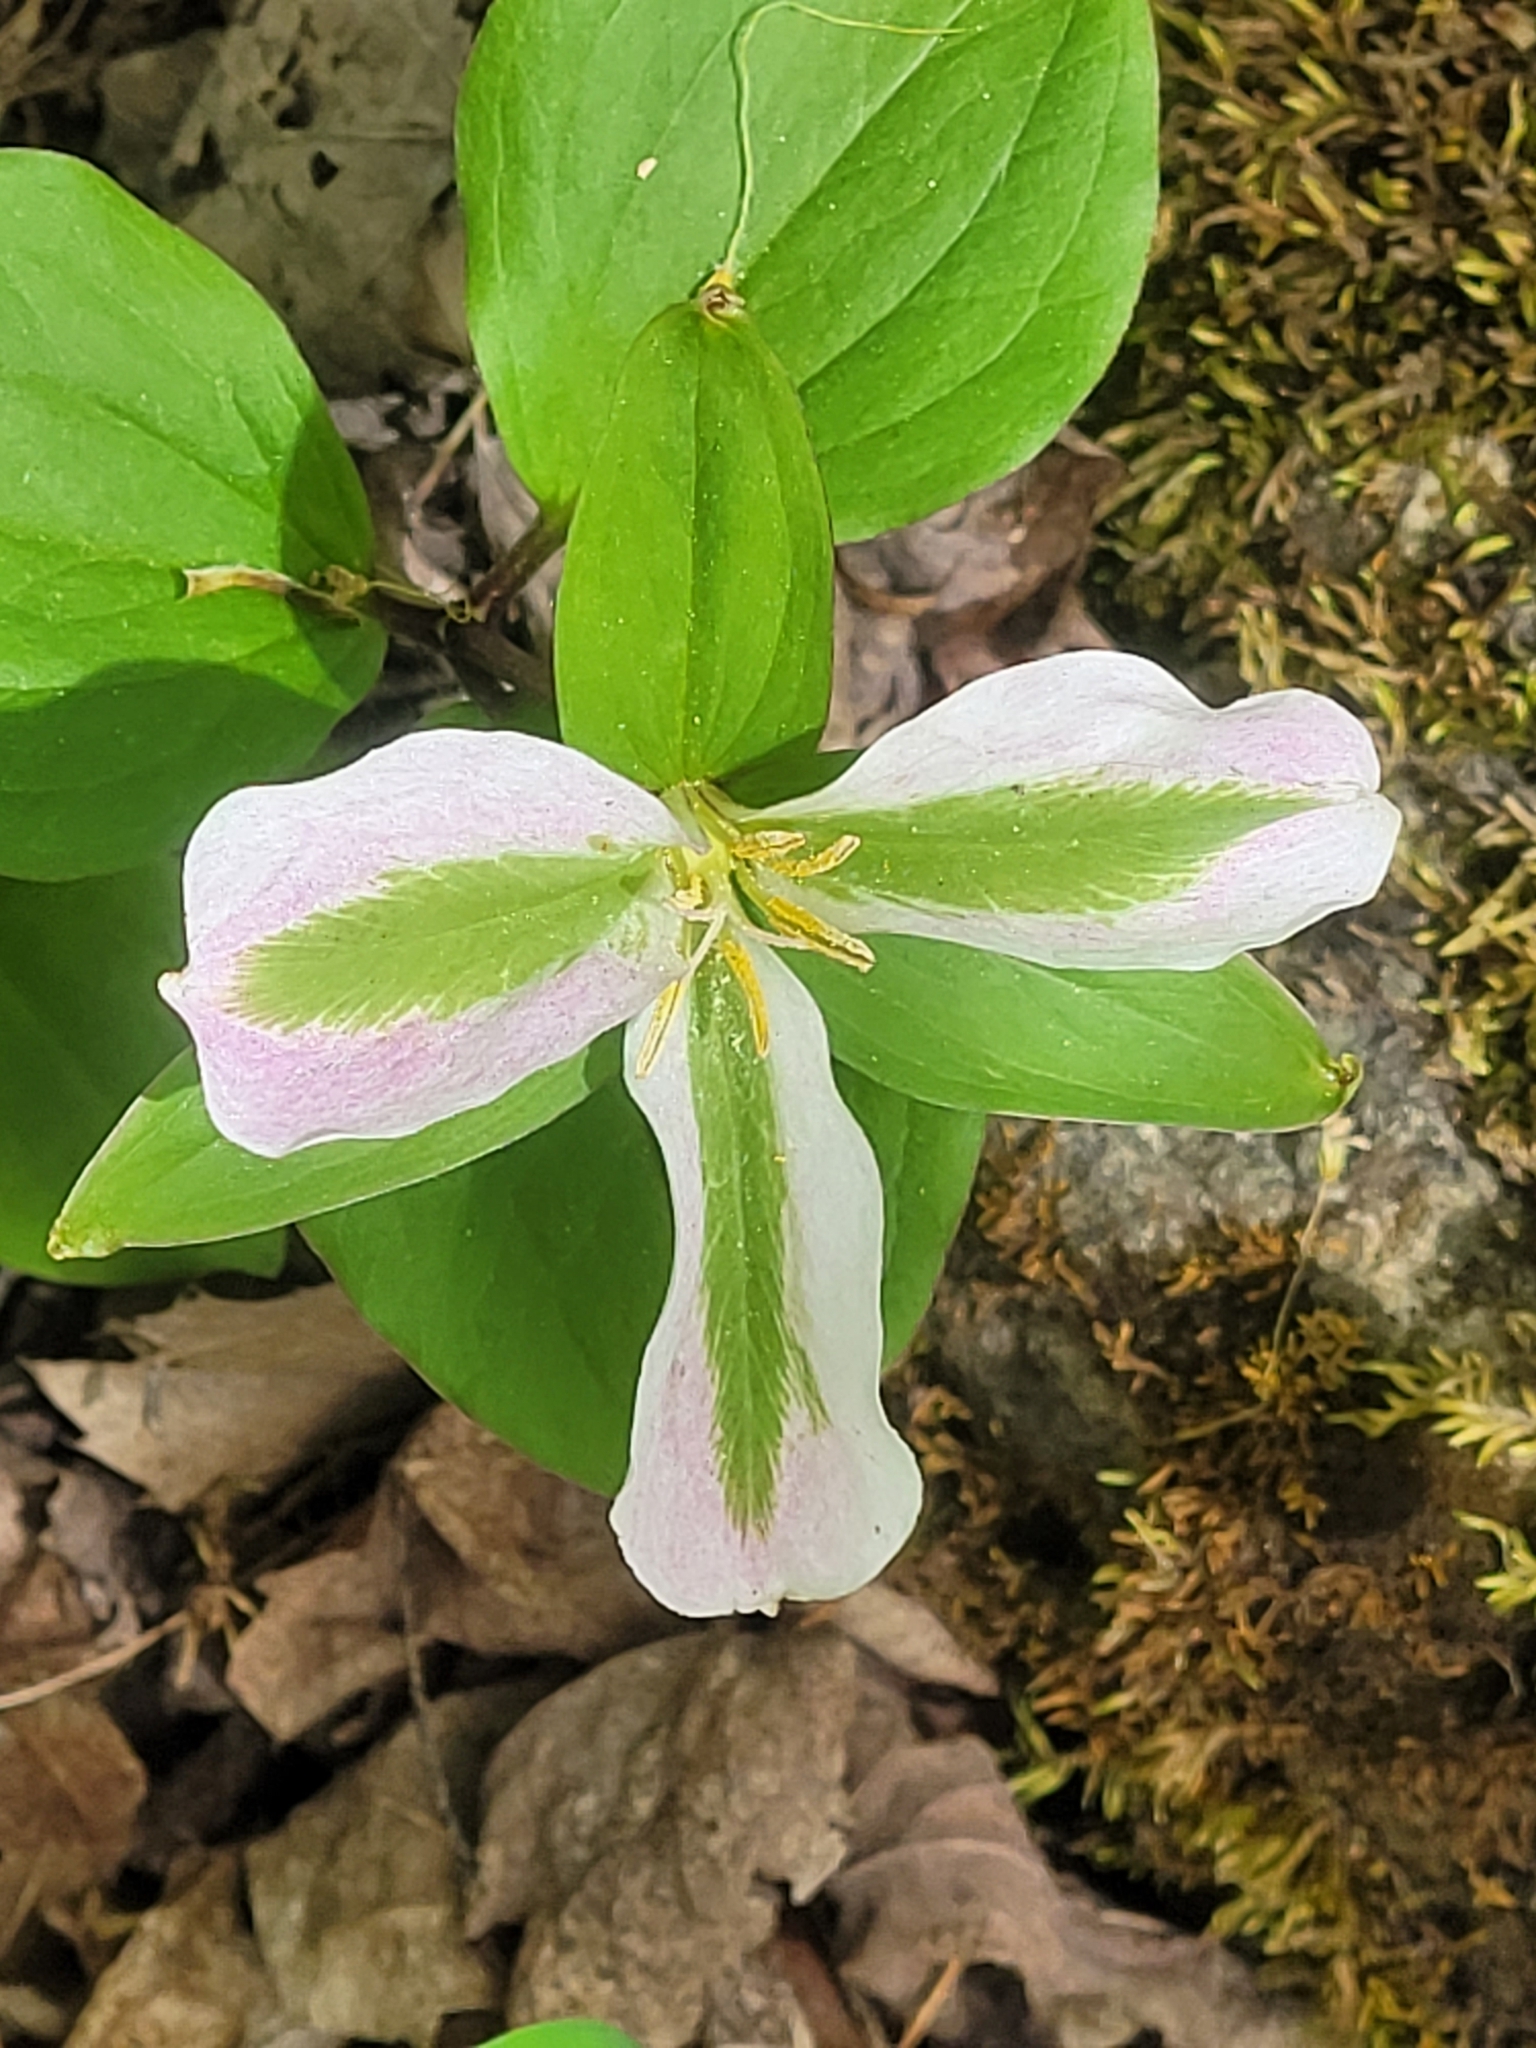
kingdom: Plantae
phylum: Tracheophyta
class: Liliopsida
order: Liliales
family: Melanthiaceae
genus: Trillium
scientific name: Trillium grandiflorum
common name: Great white trillium
